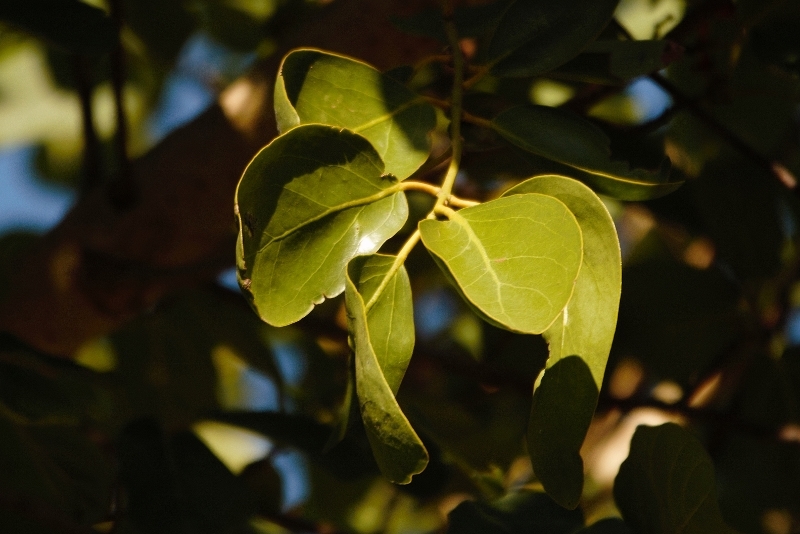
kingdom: Plantae
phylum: Tracheophyta
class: Magnoliopsida
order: Santalales
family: Loranthaceae
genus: Globimetula
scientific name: Globimetula mweroensis
